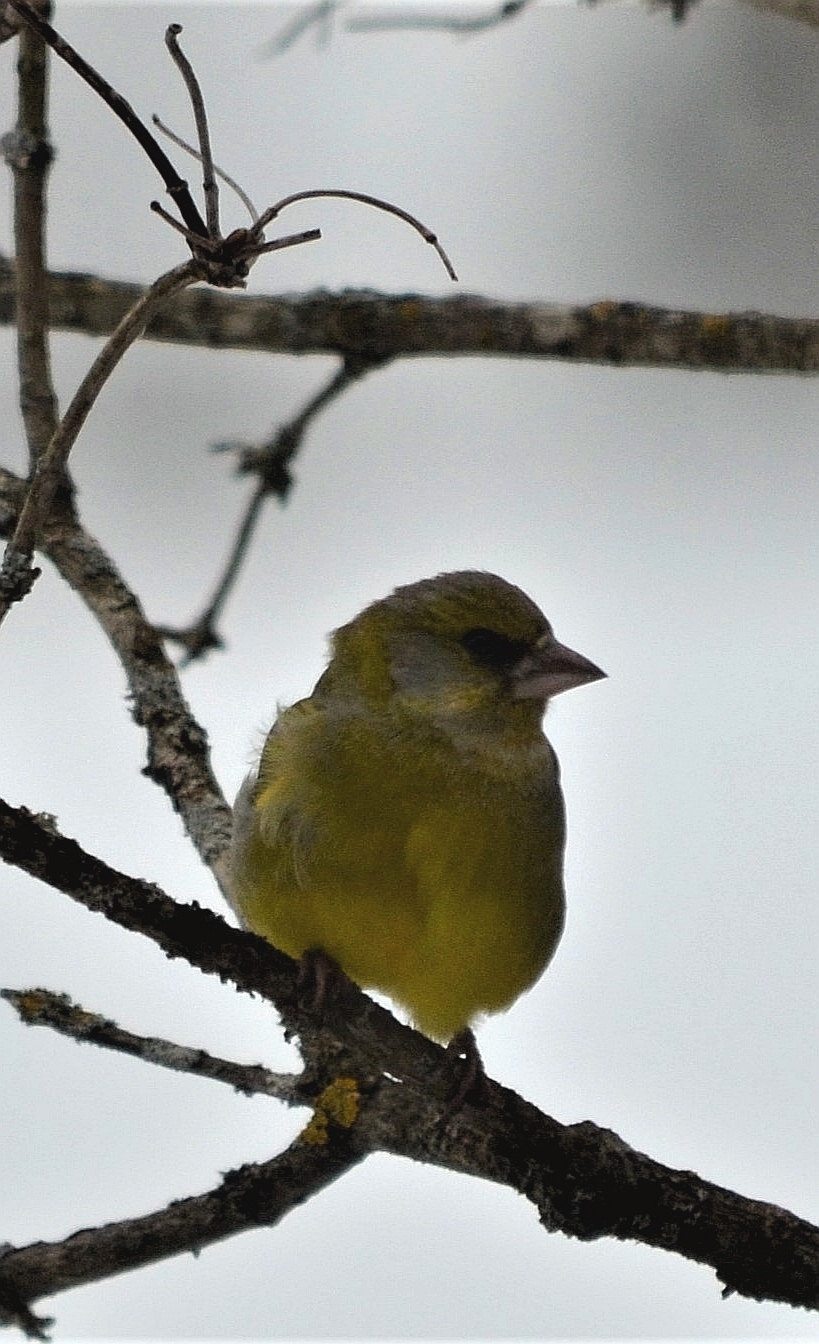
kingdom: Plantae
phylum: Tracheophyta
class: Liliopsida
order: Poales
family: Poaceae
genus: Chloris
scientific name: Chloris chloris
